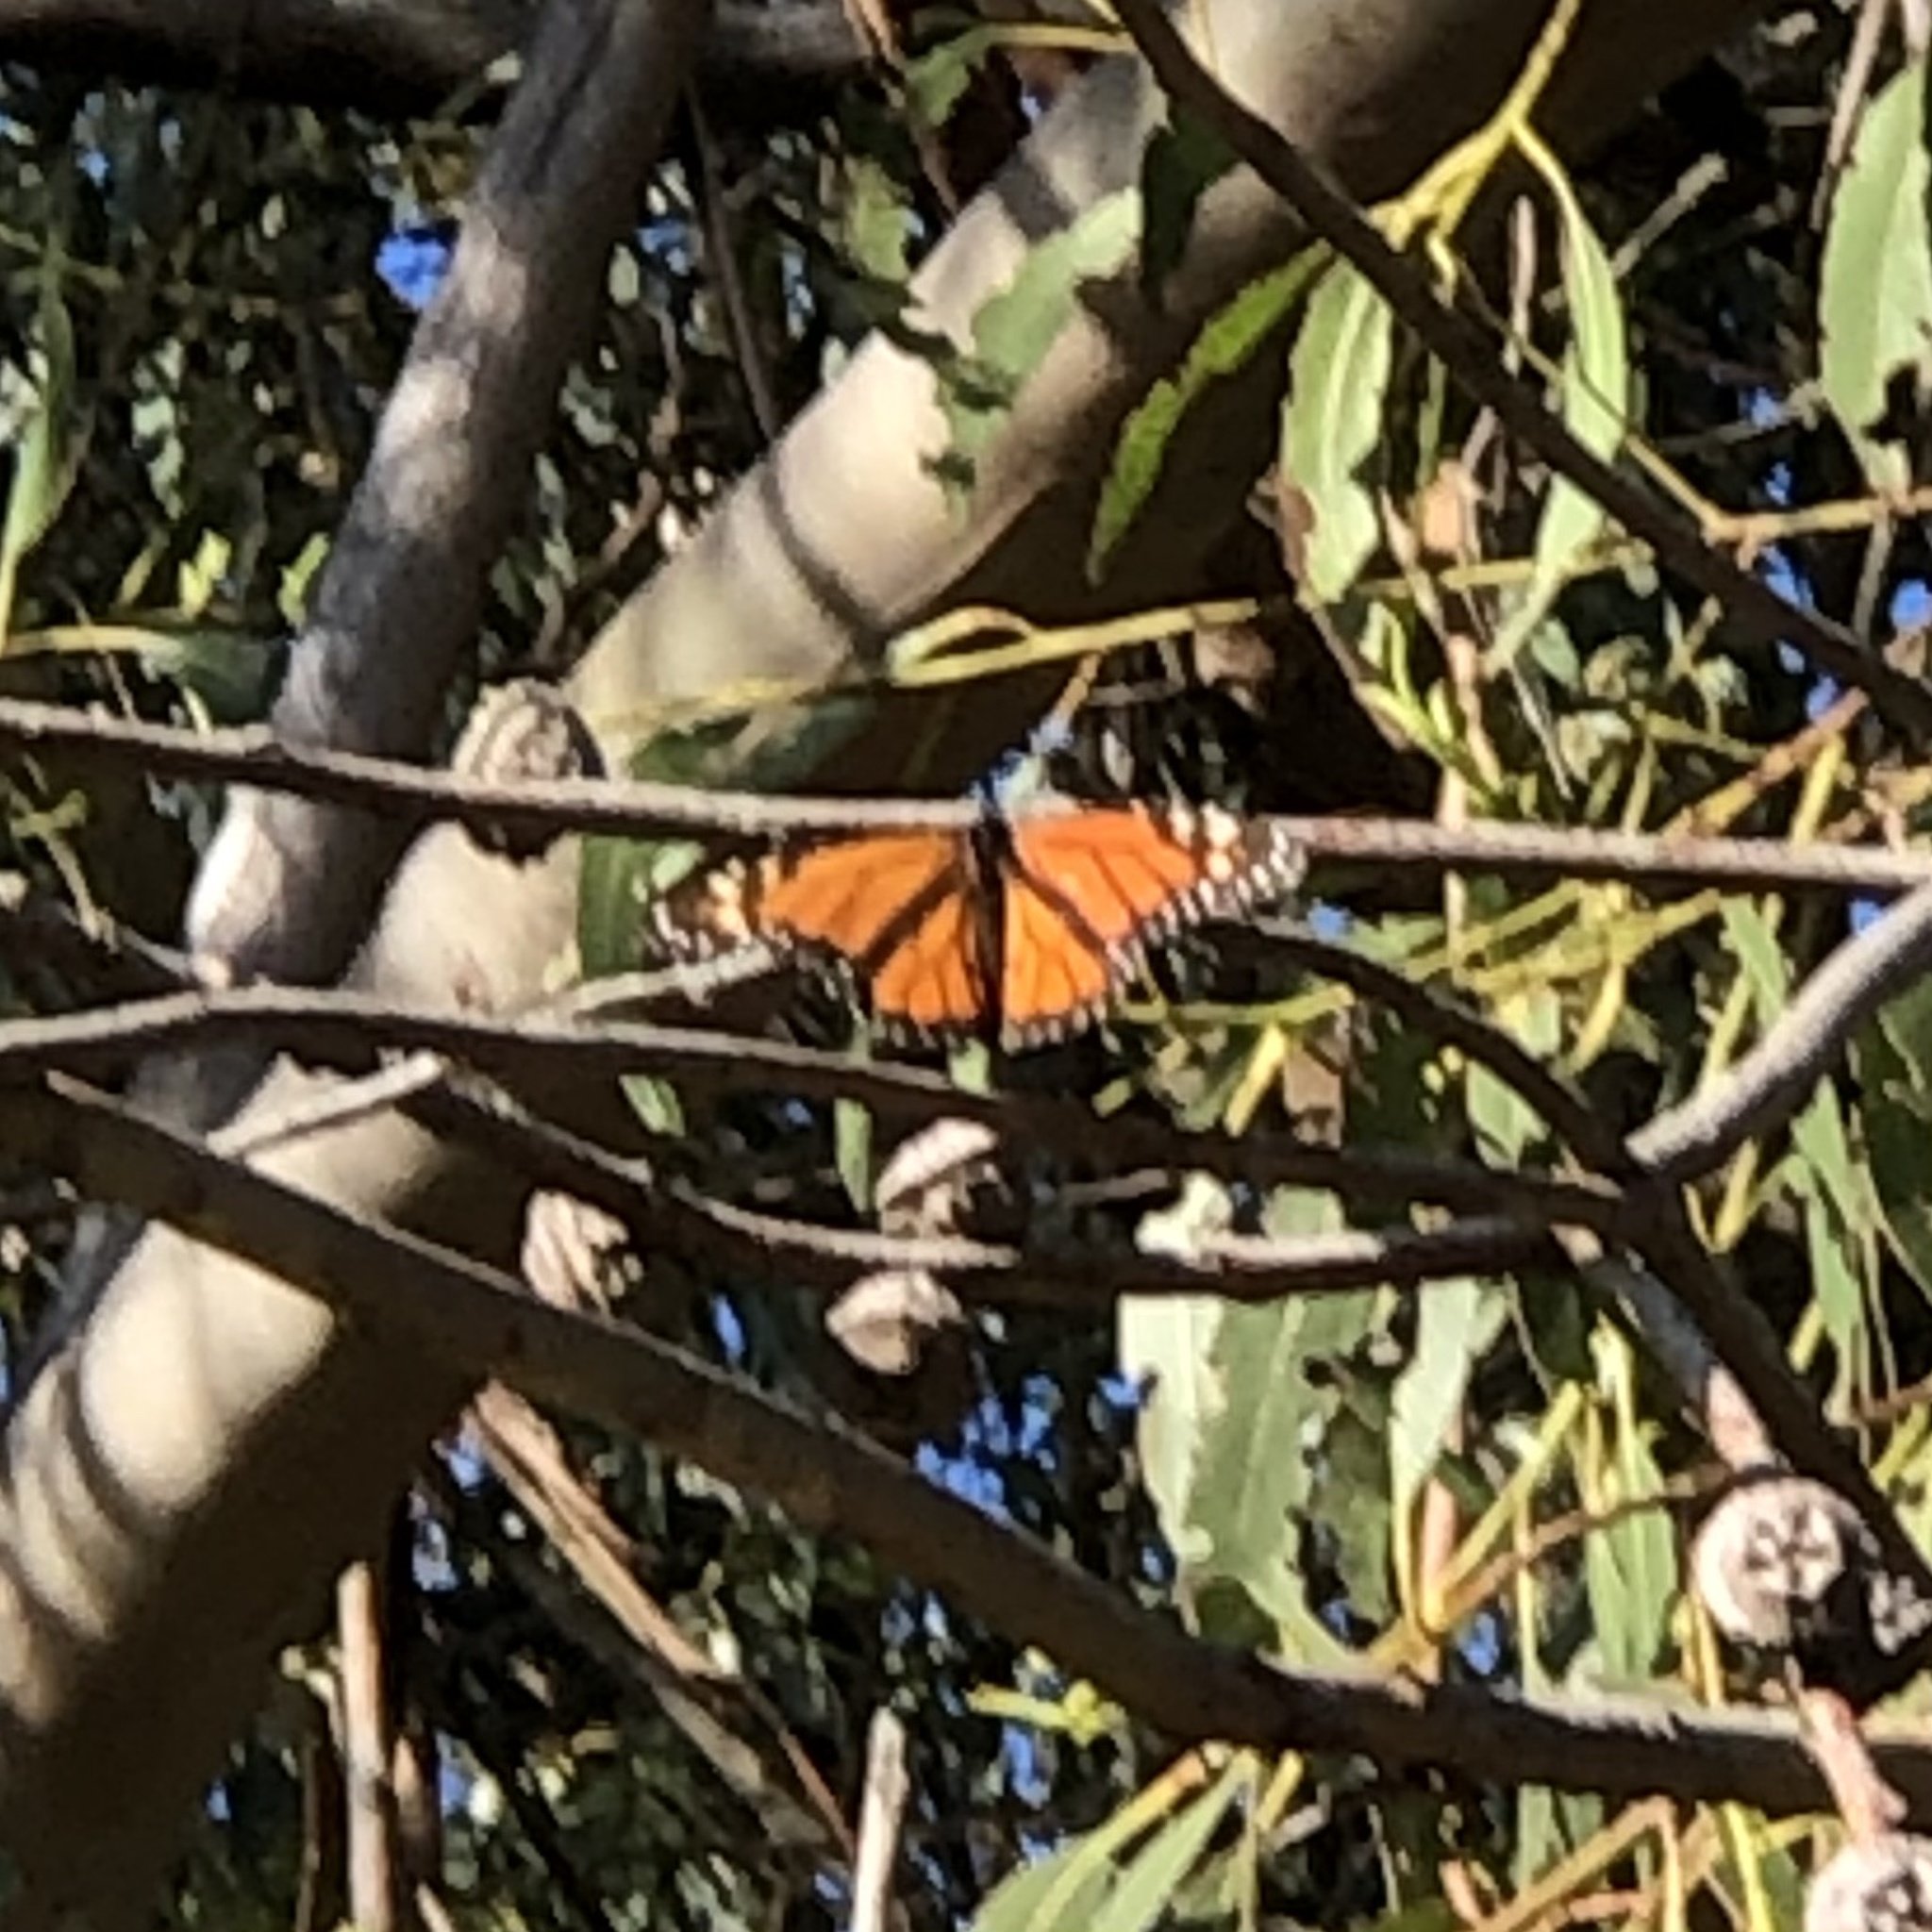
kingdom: Animalia
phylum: Arthropoda
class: Insecta
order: Lepidoptera
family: Nymphalidae
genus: Danaus
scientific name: Danaus plexippus
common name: Monarch
